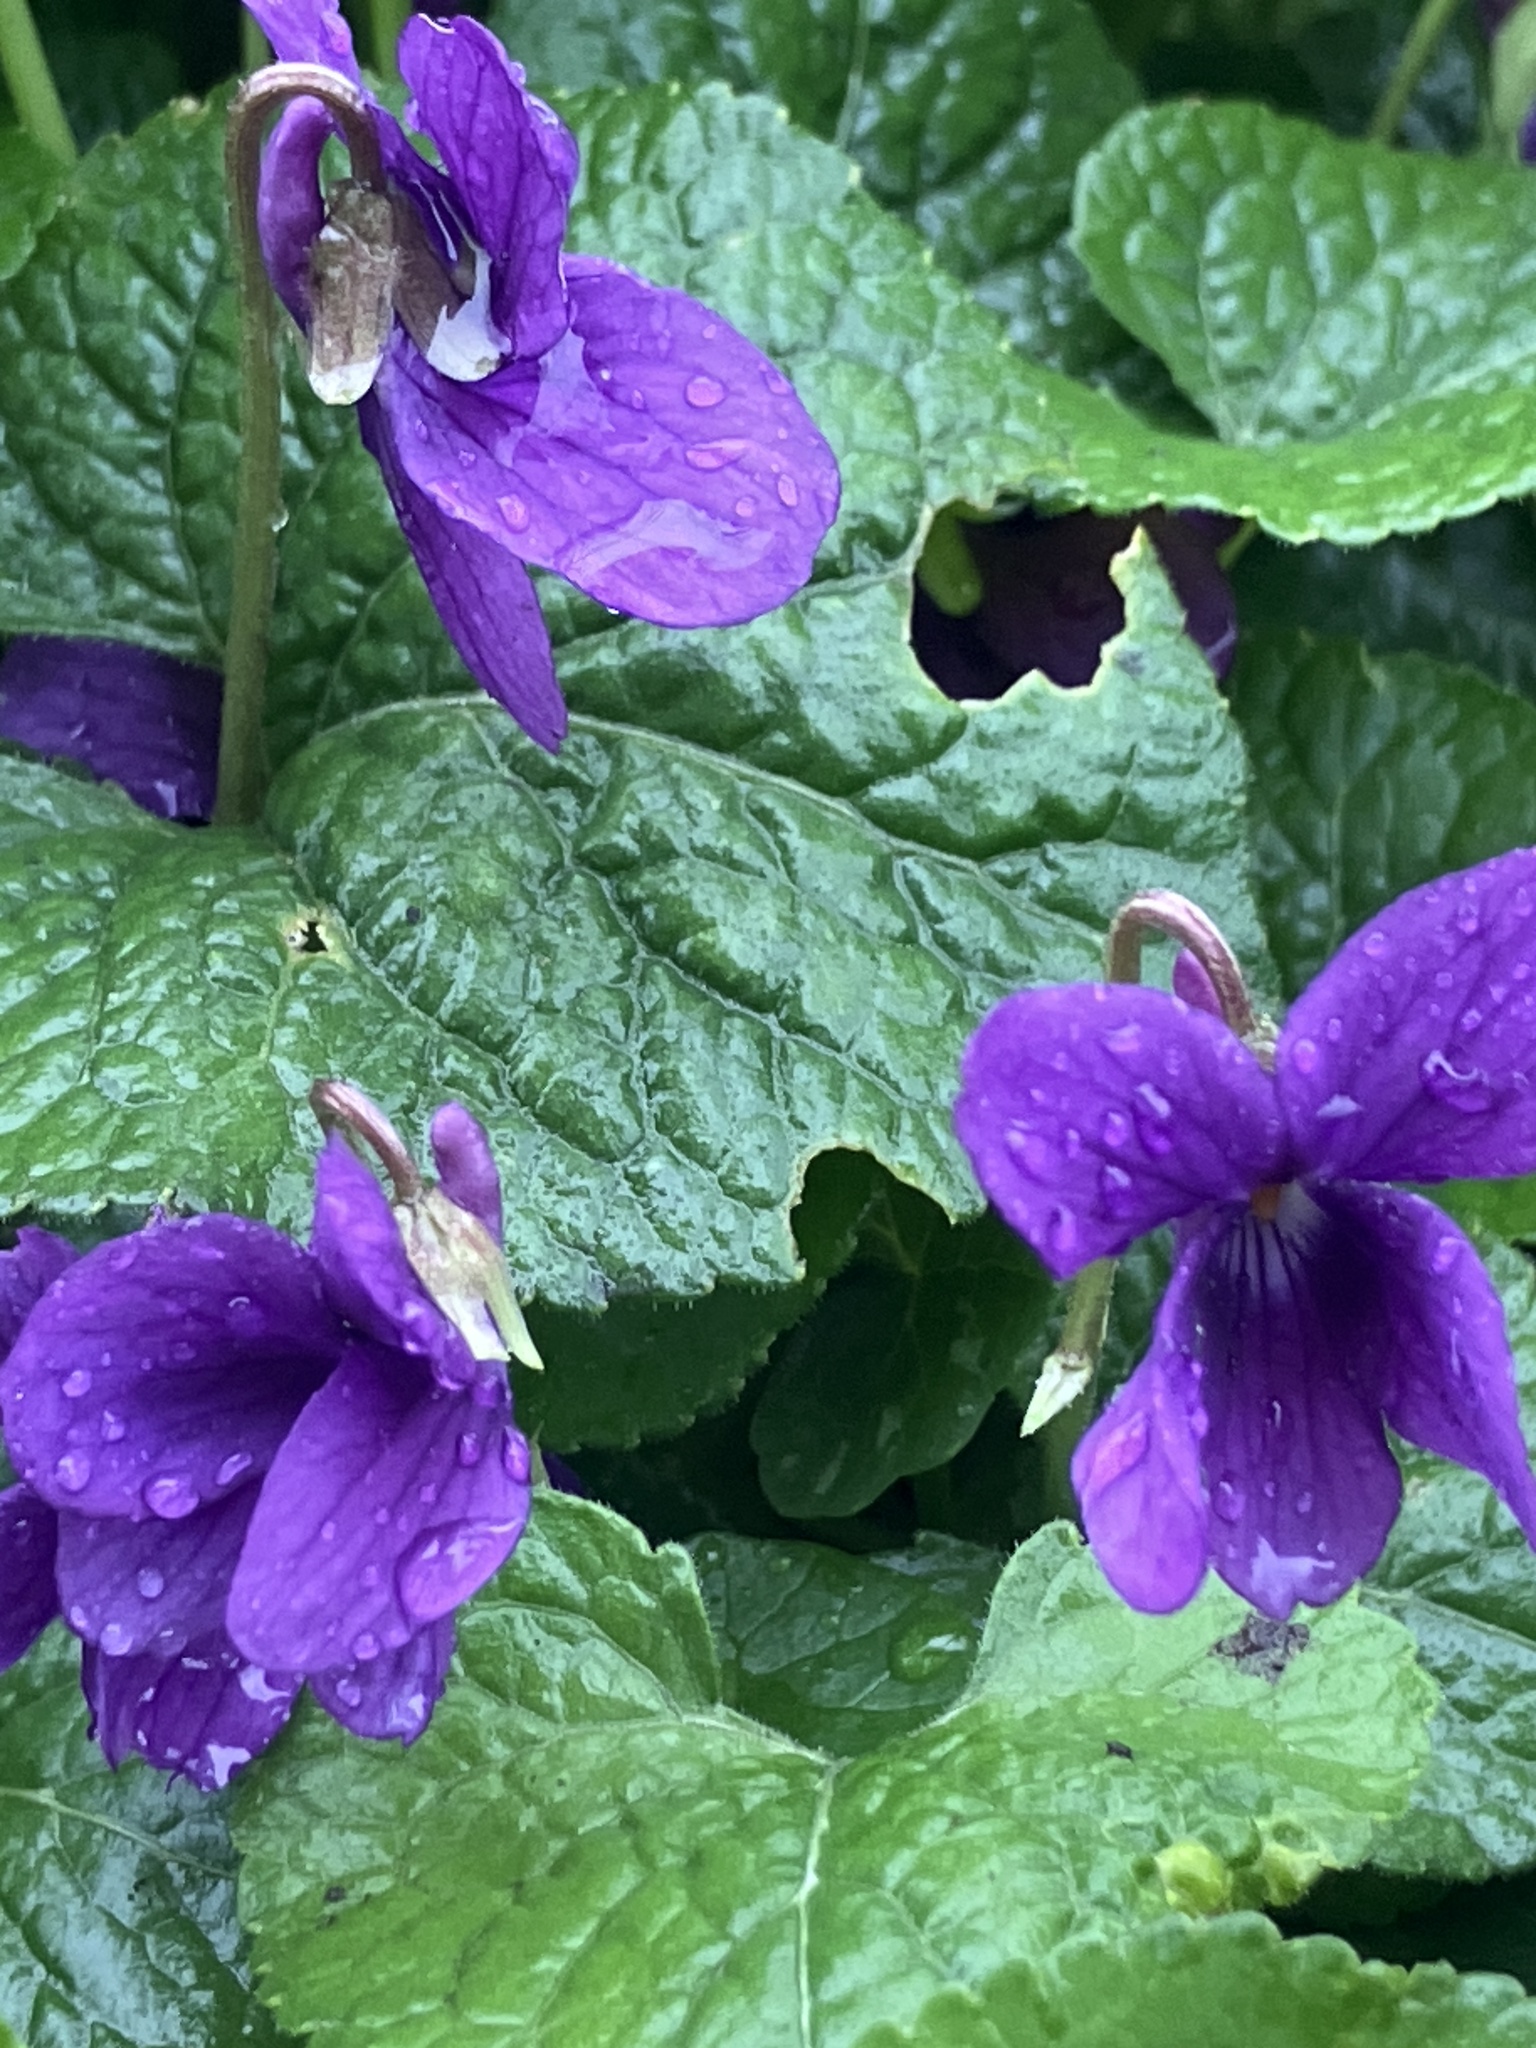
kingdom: Plantae
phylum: Tracheophyta
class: Magnoliopsida
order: Malpighiales
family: Violaceae
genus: Viola
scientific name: Viola odorata
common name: Sweet violet
